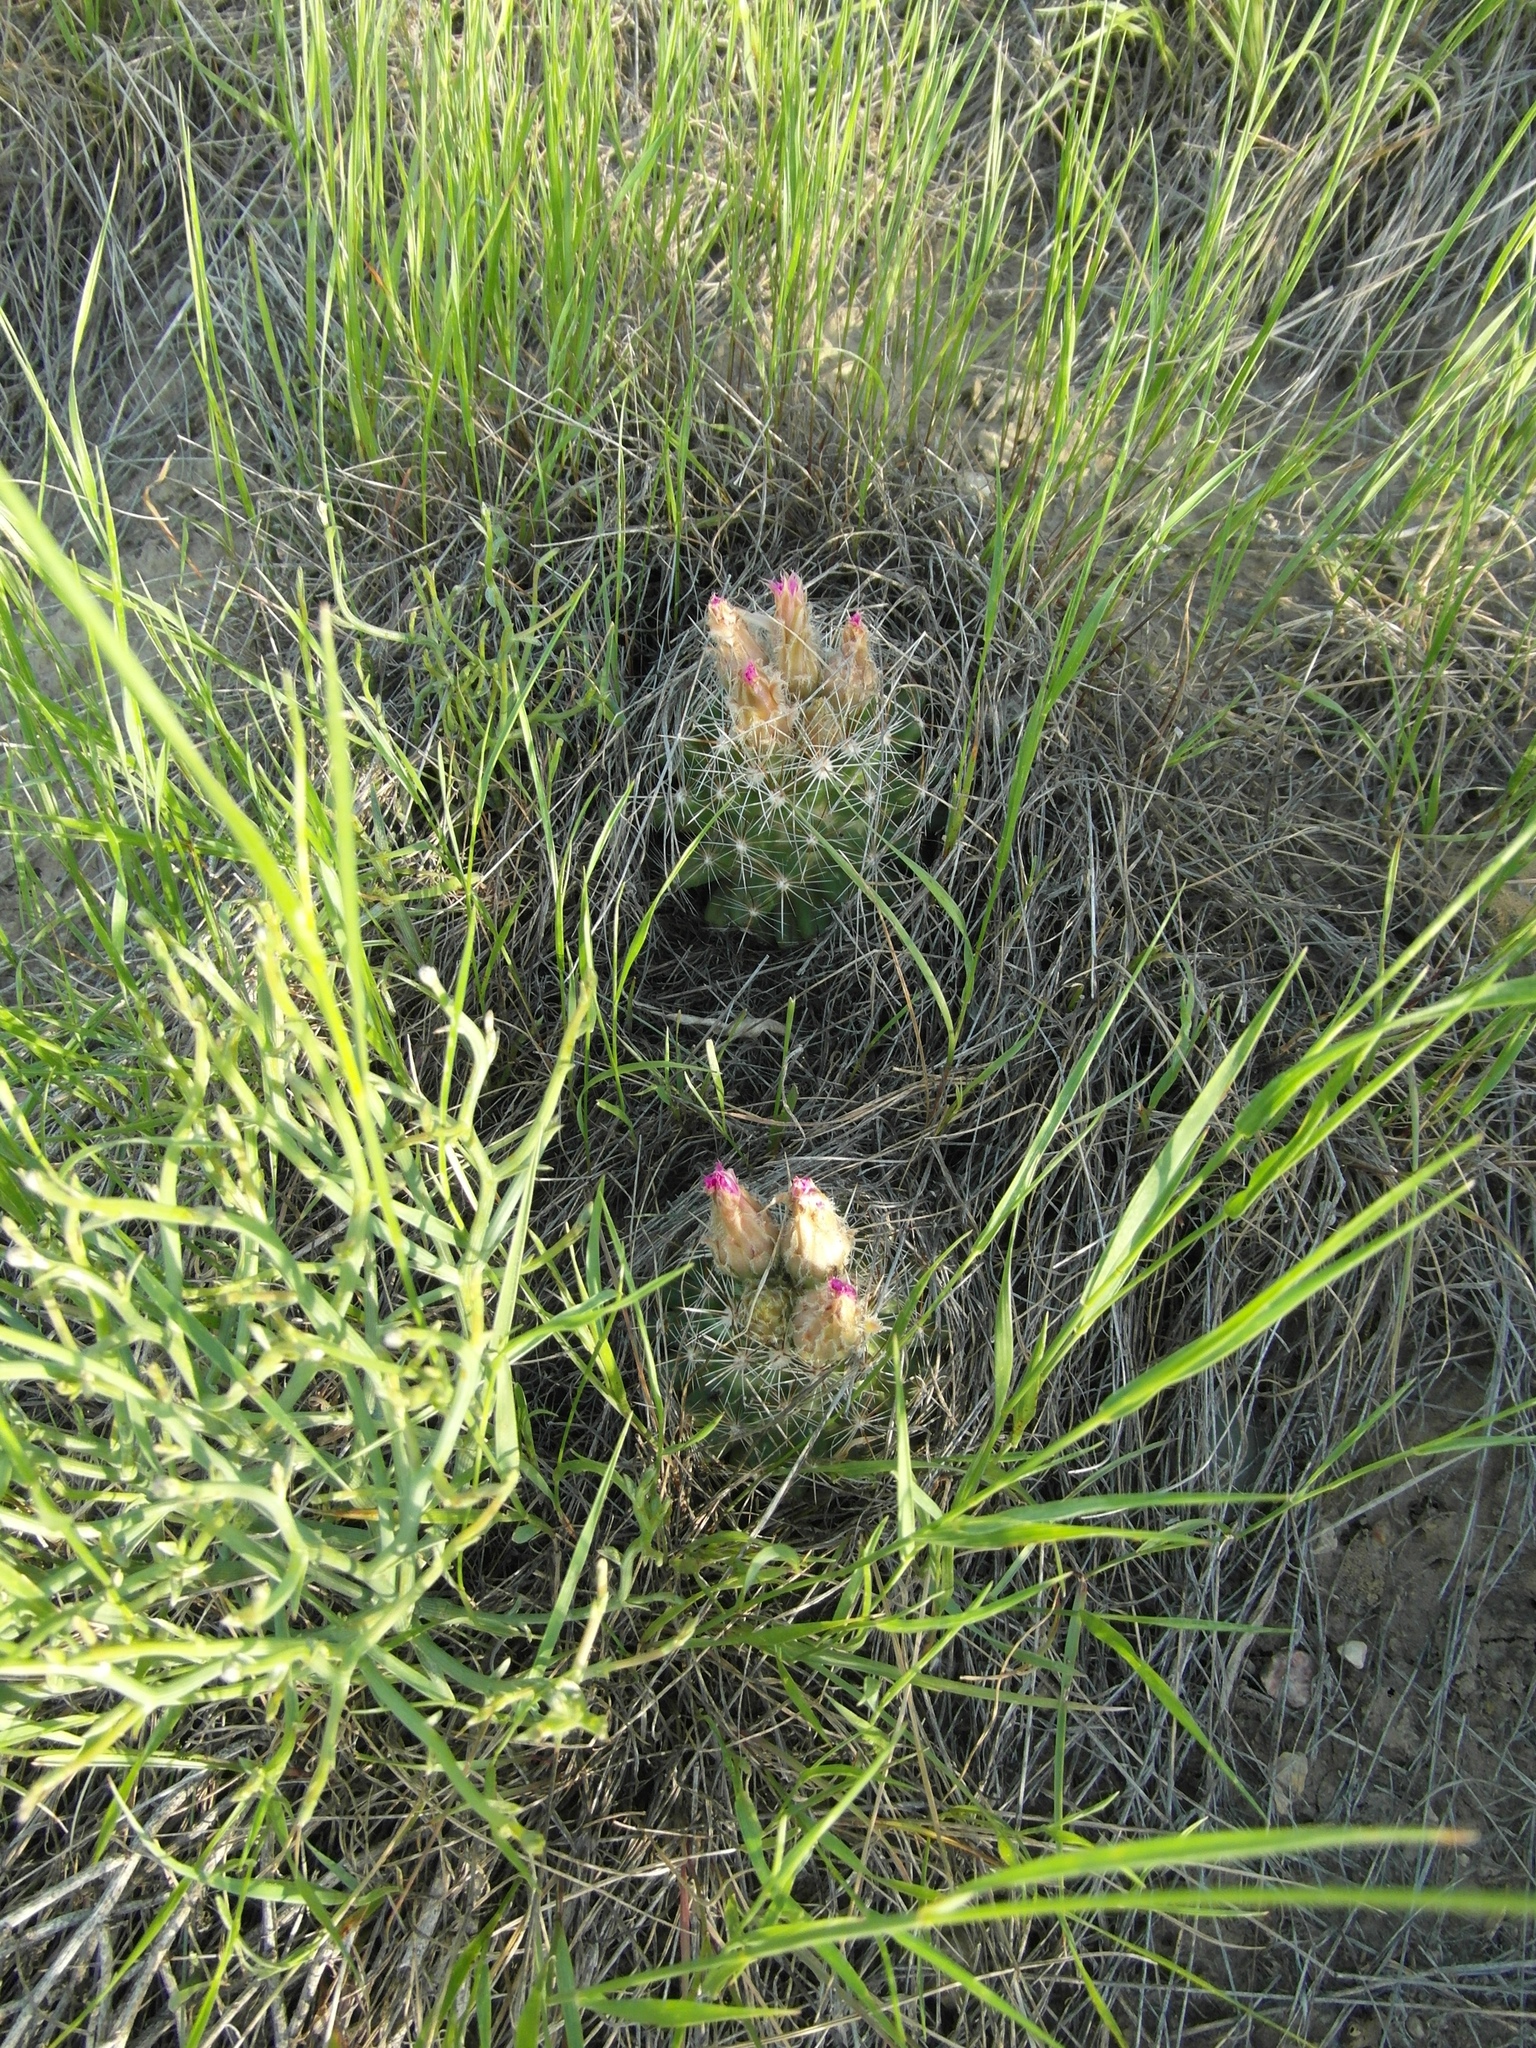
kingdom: Plantae
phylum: Tracheophyta
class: Magnoliopsida
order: Caryophyllales
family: Cactaceae
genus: Pelecyphora
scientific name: Pelecyphora vivipara
